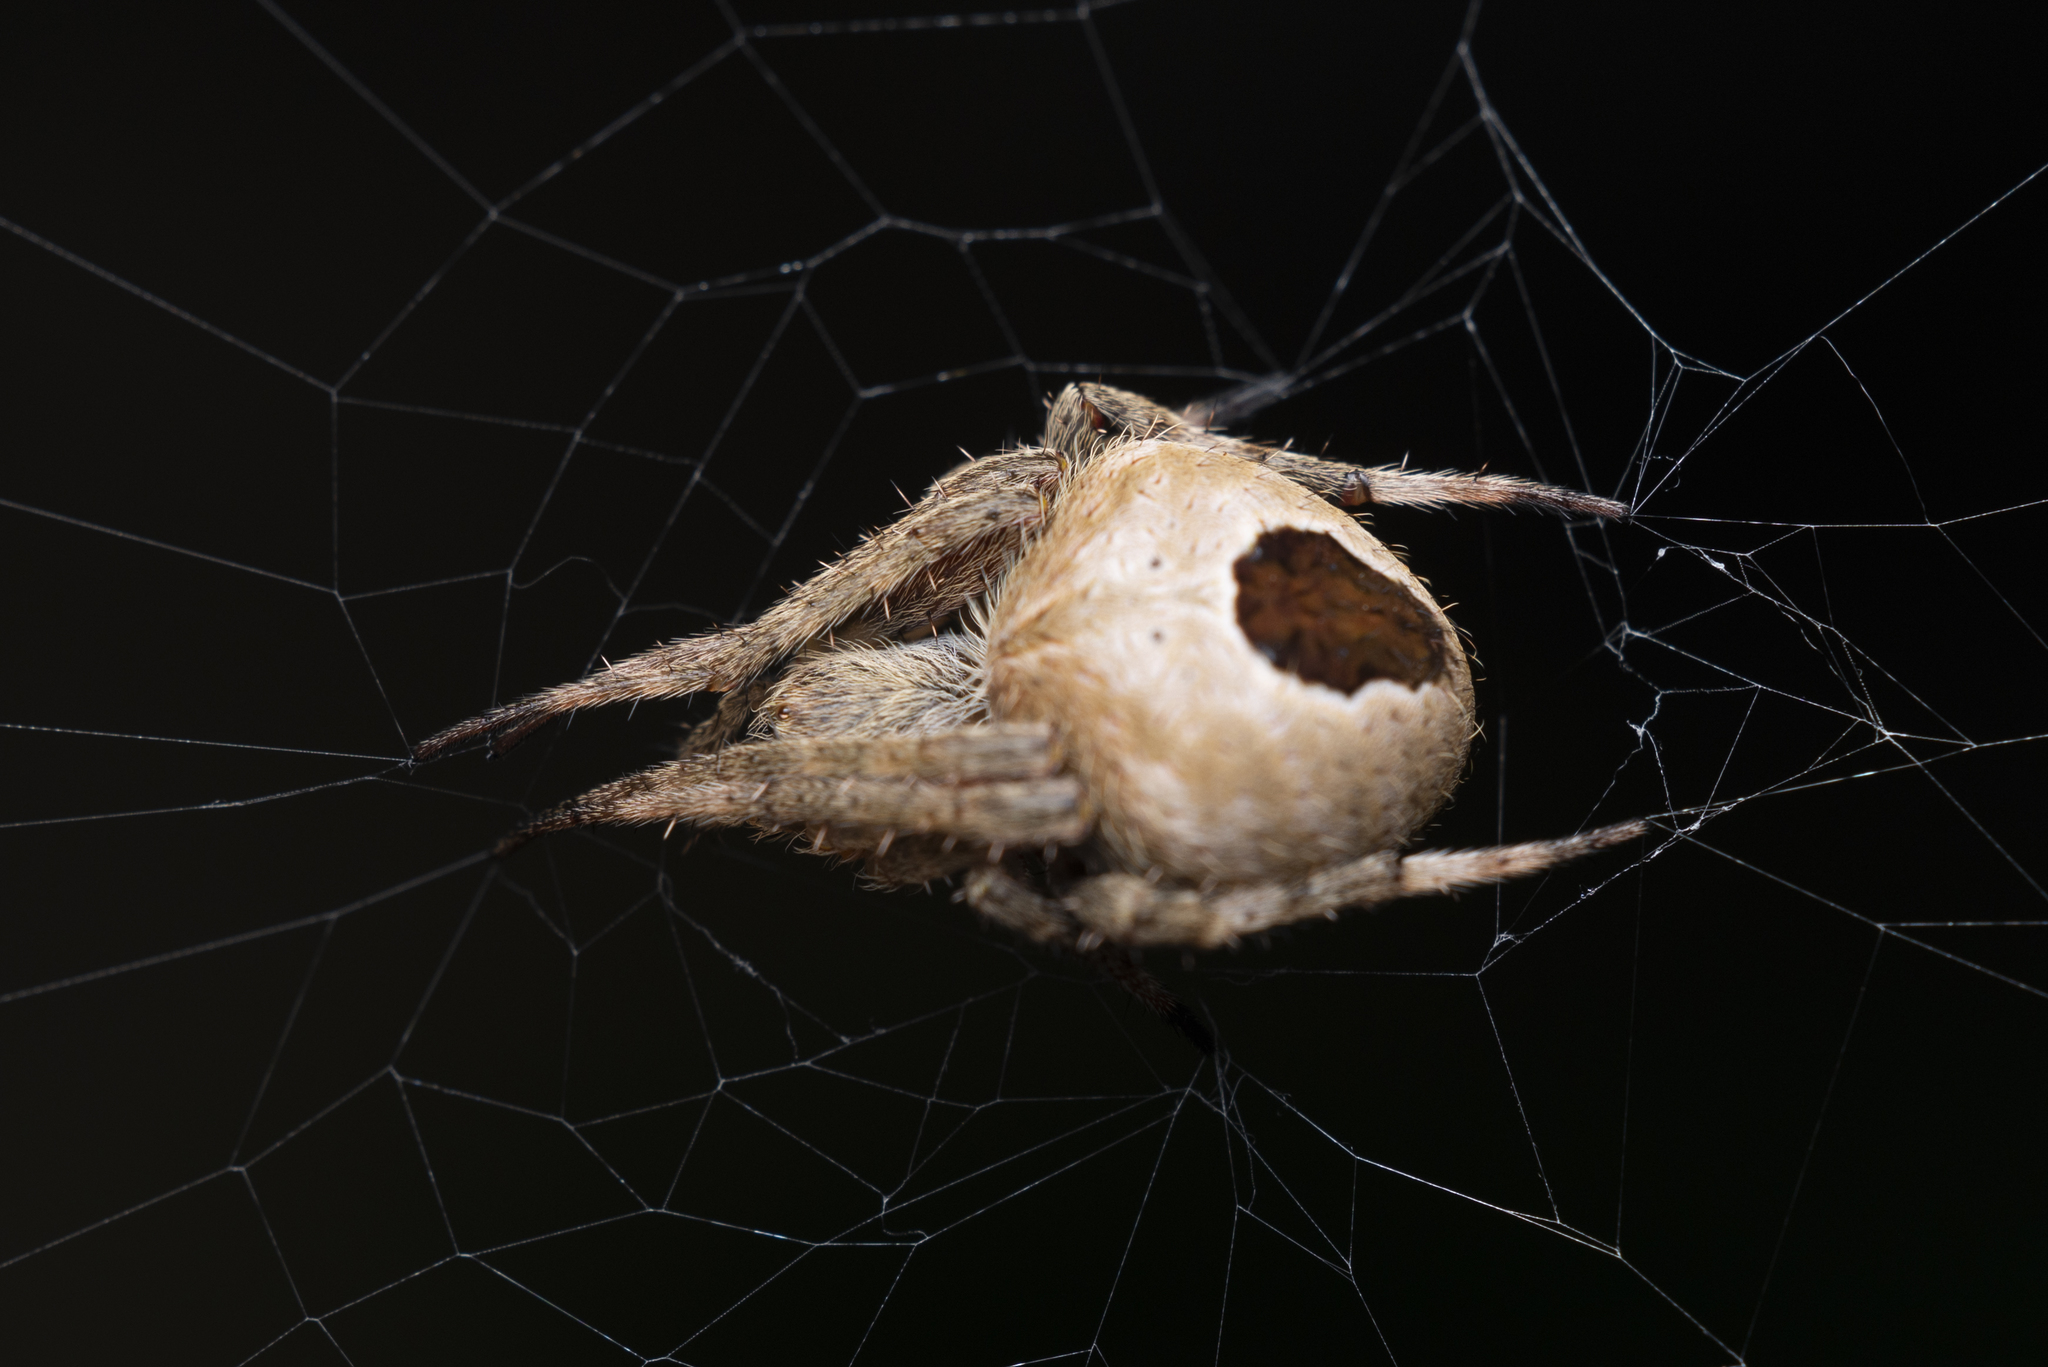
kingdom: Animalia
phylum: Arthropoda
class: Arachnida
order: Araneae
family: Araneidae
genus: Neoscona
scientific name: Neoscona vigilans
